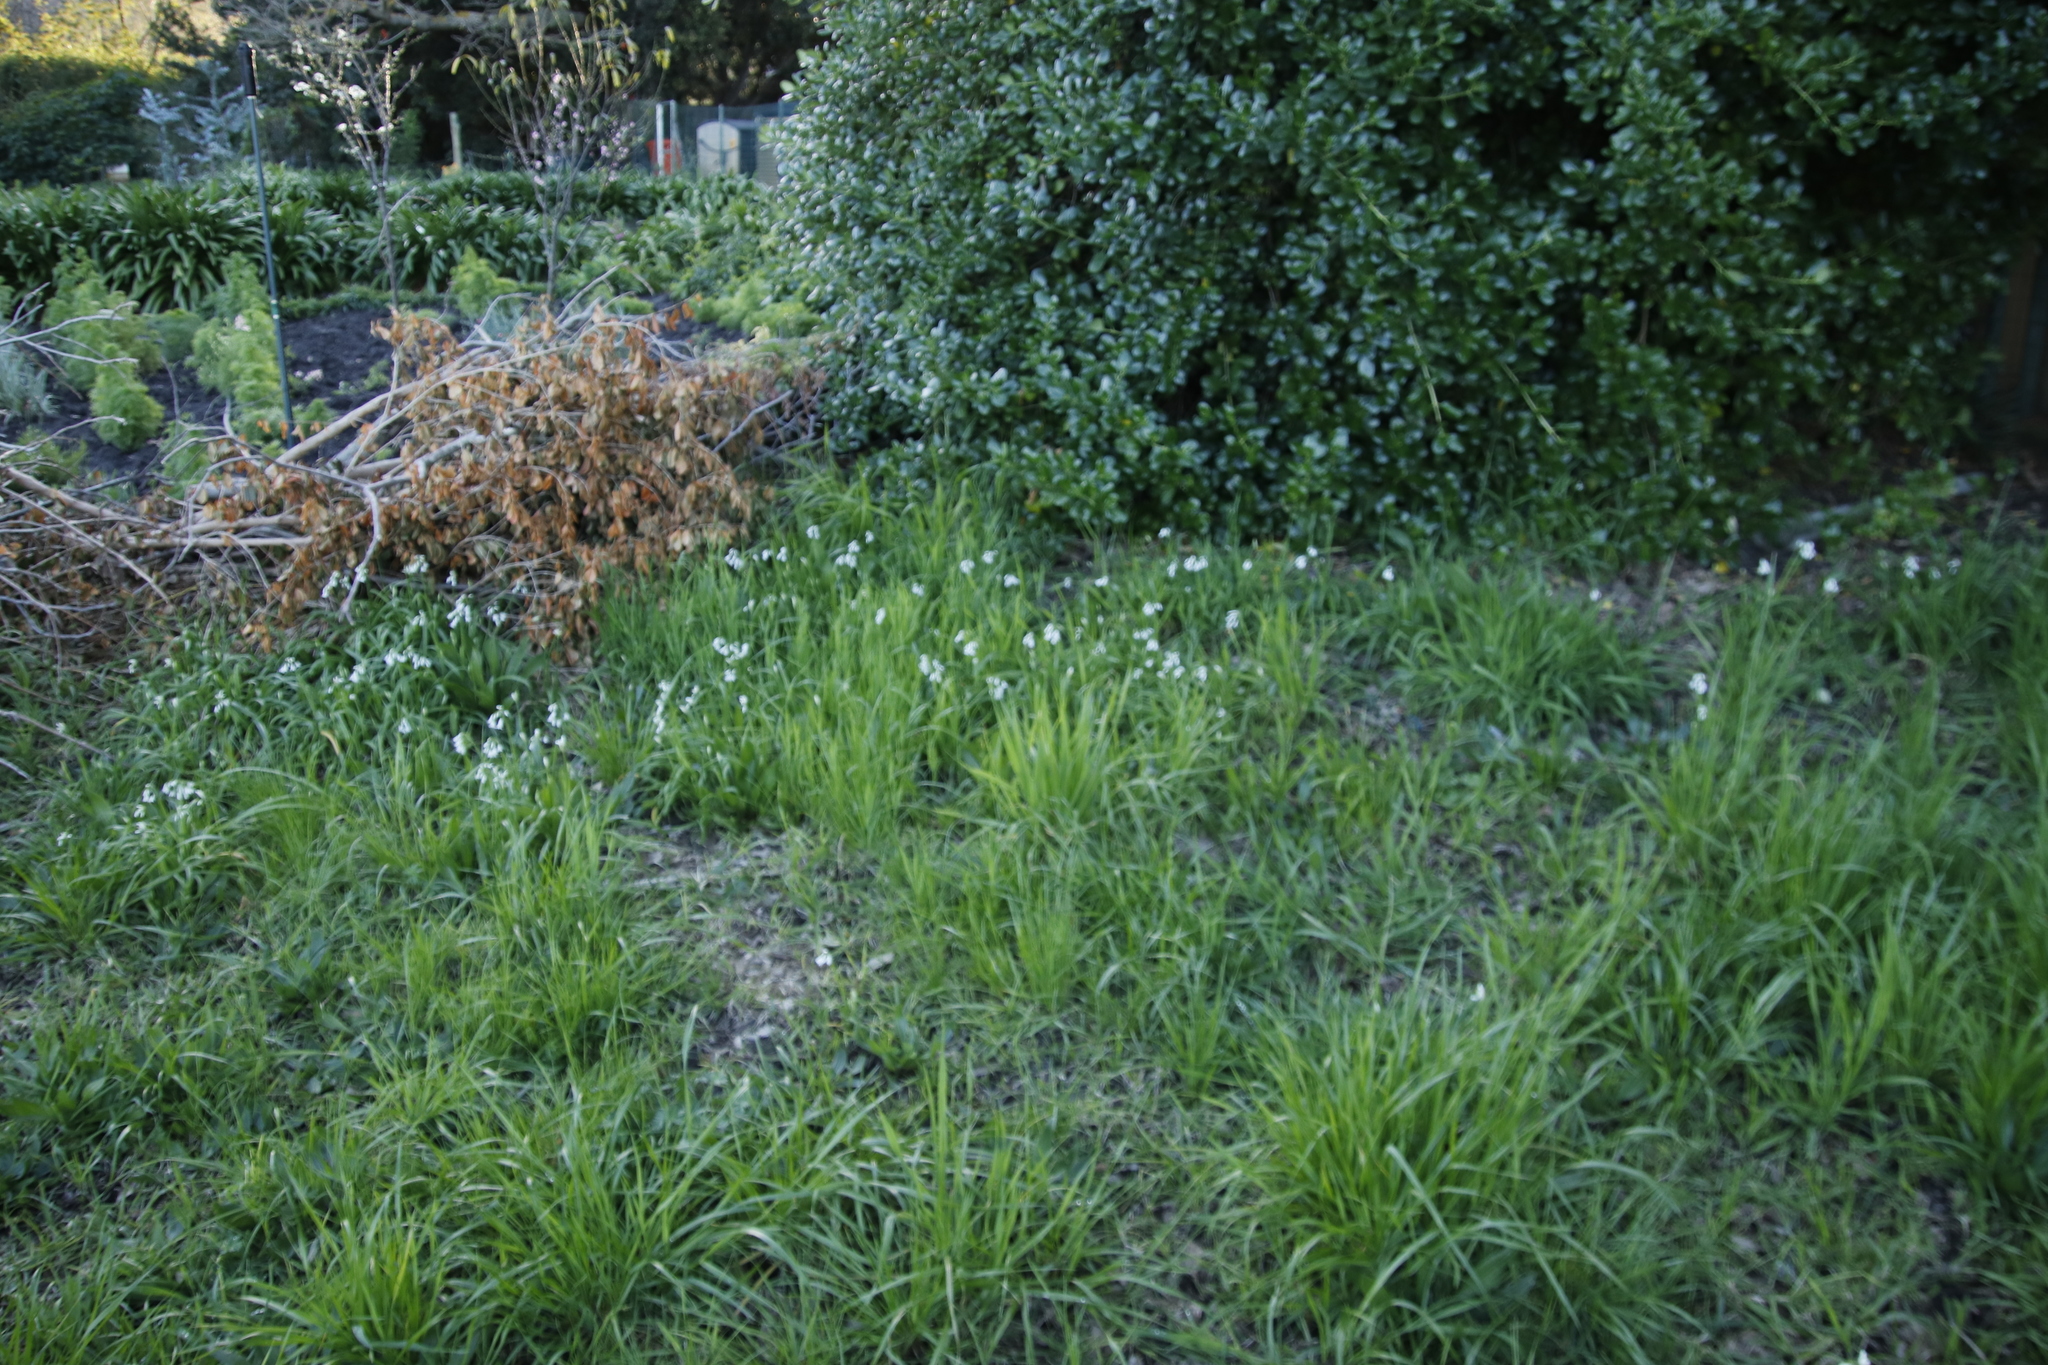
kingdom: Plantae
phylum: Tracheophyta
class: Liliopsida
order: Asparagales
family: Amaryllidaceae
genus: Allium
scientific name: Allium triquetrum
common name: Three-cornered garlic
